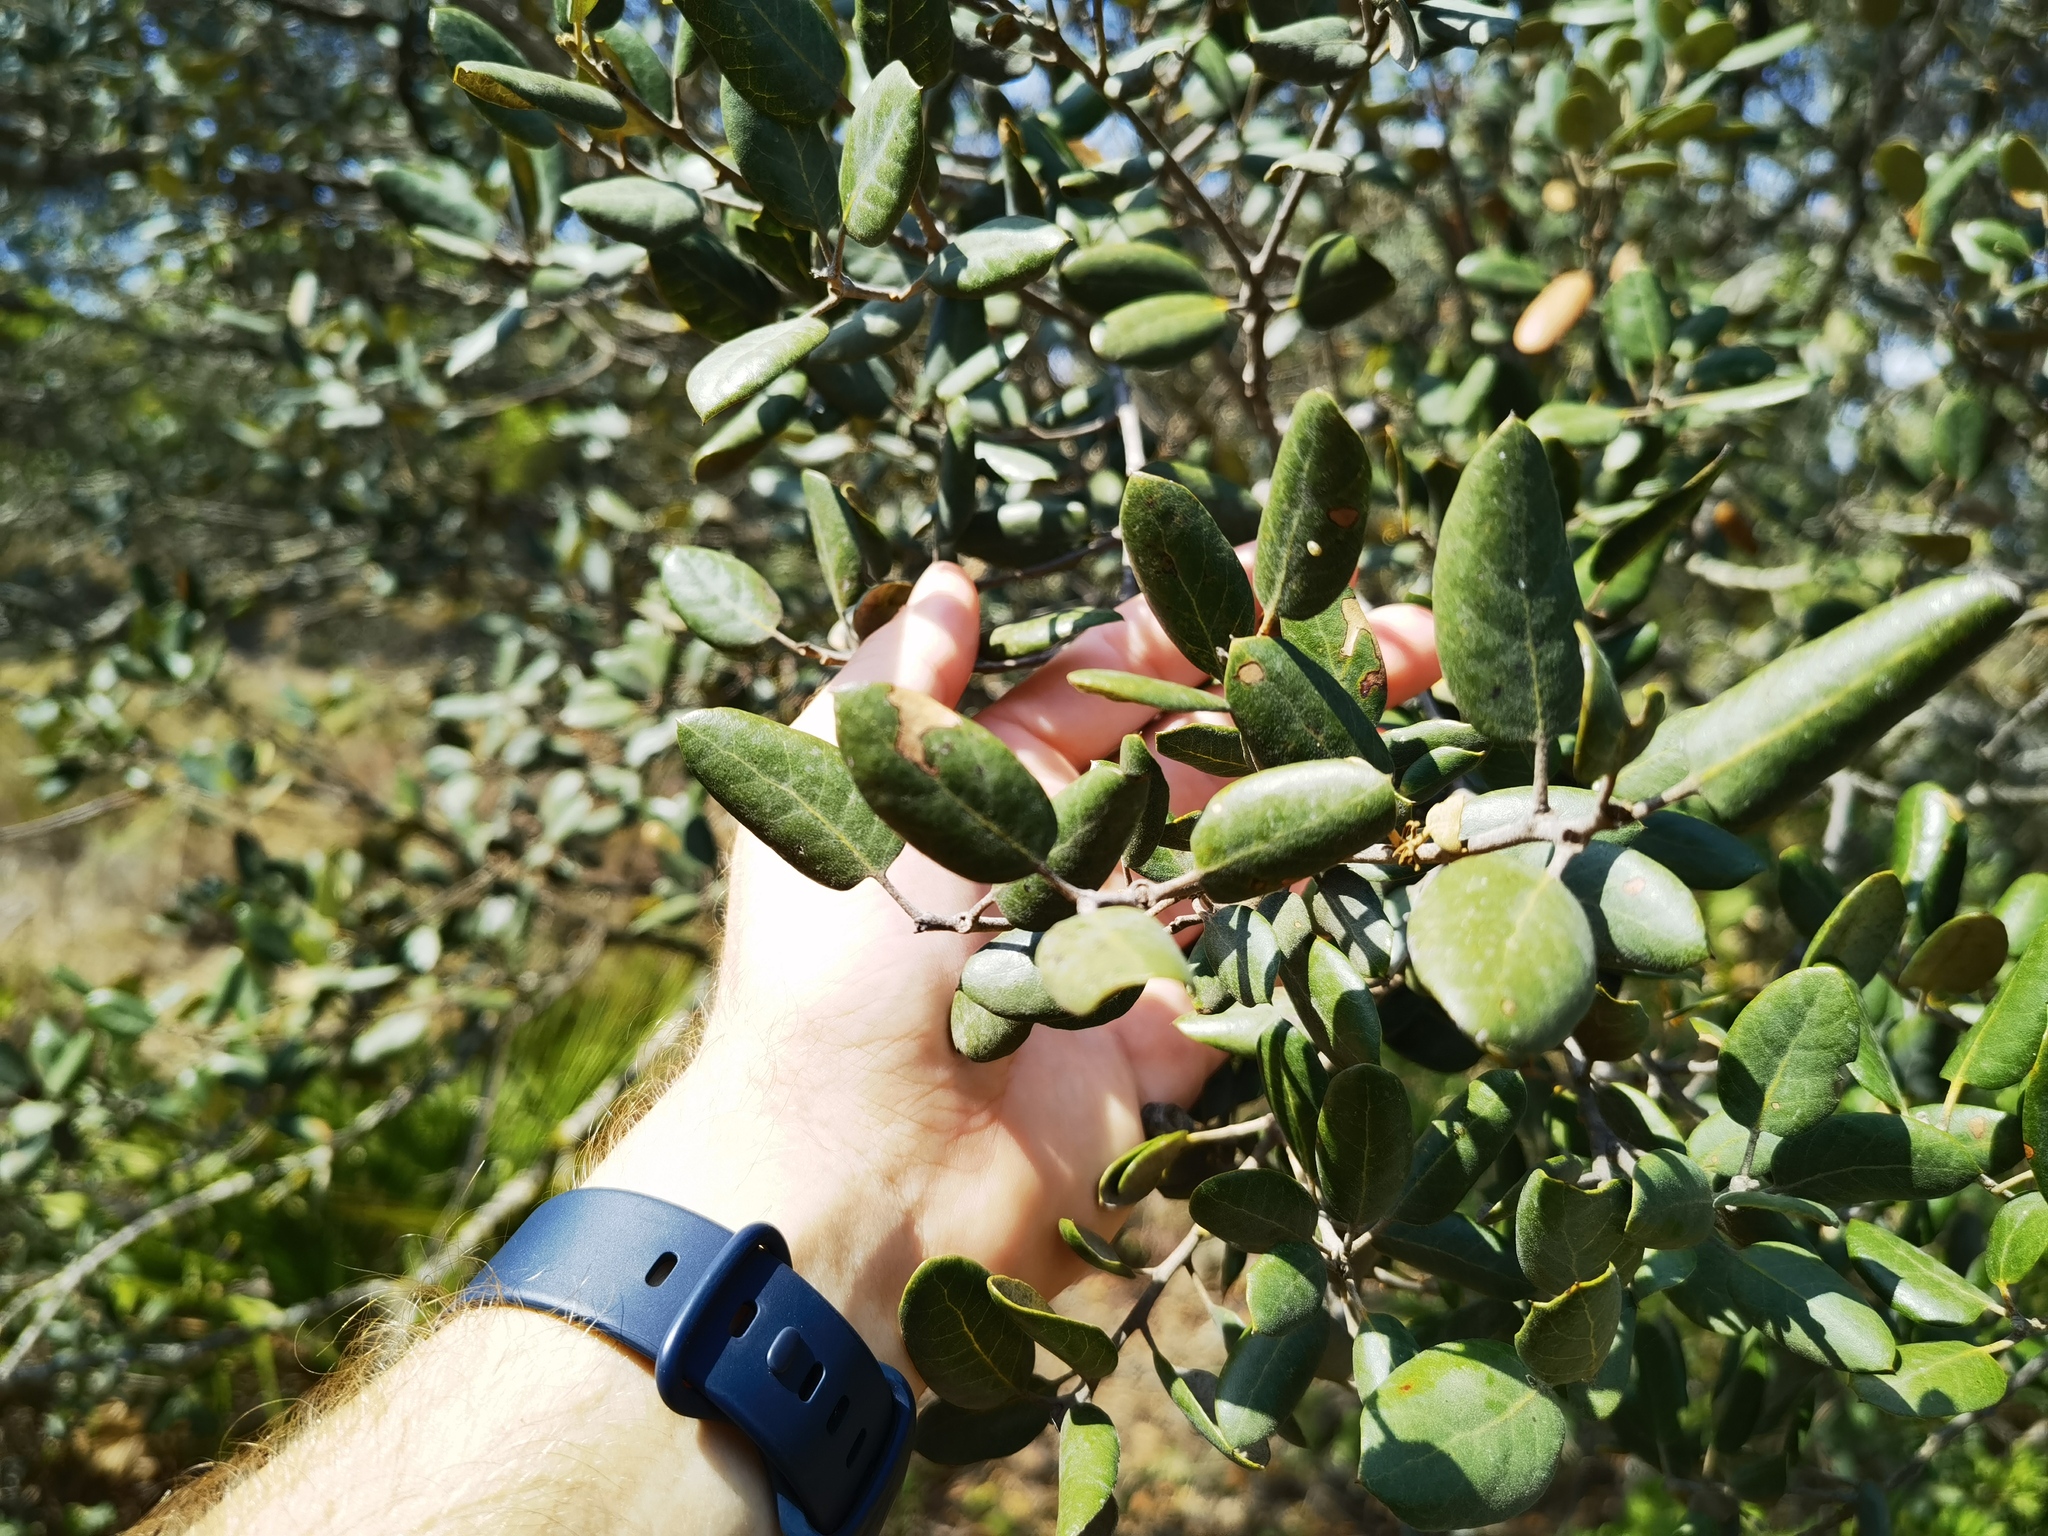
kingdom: Plantae
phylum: Tracheophyta
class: Magnoliopsida
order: Fagales
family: Fagaceae
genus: Quercus
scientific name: Quercus rotundifolia
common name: Holm oak
